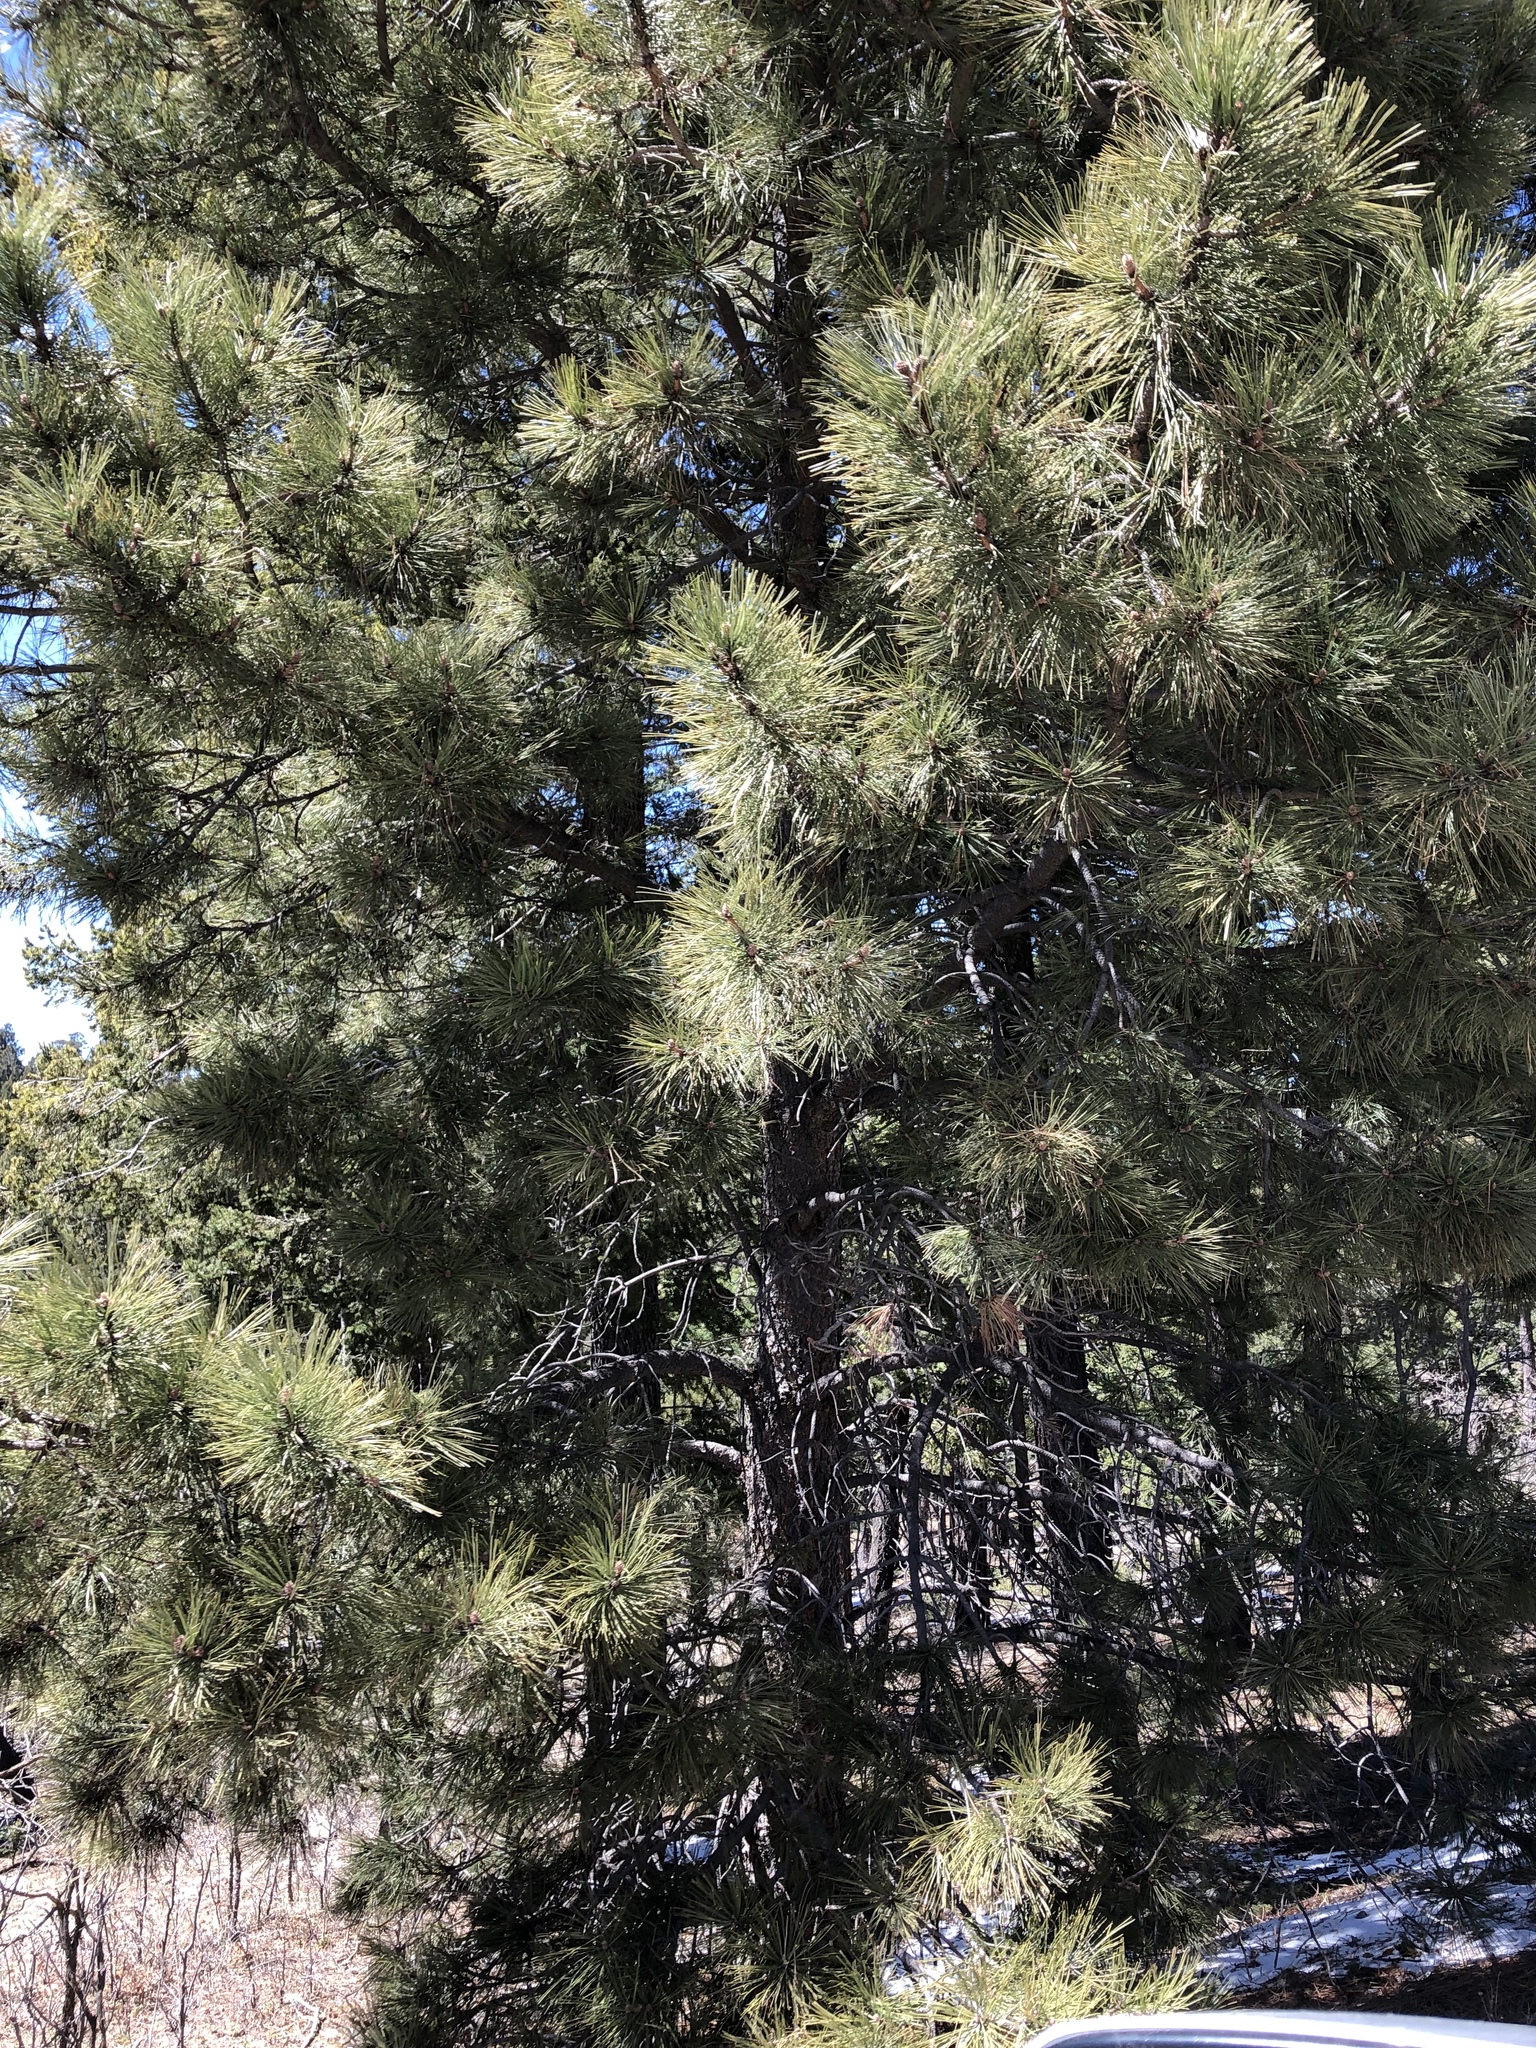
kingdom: Plantae
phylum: Tracheophyta
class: Pinopsida
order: Pinales
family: Pinaceae
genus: Pinus
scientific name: Pinus ponderosa
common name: Western yellow-pine
